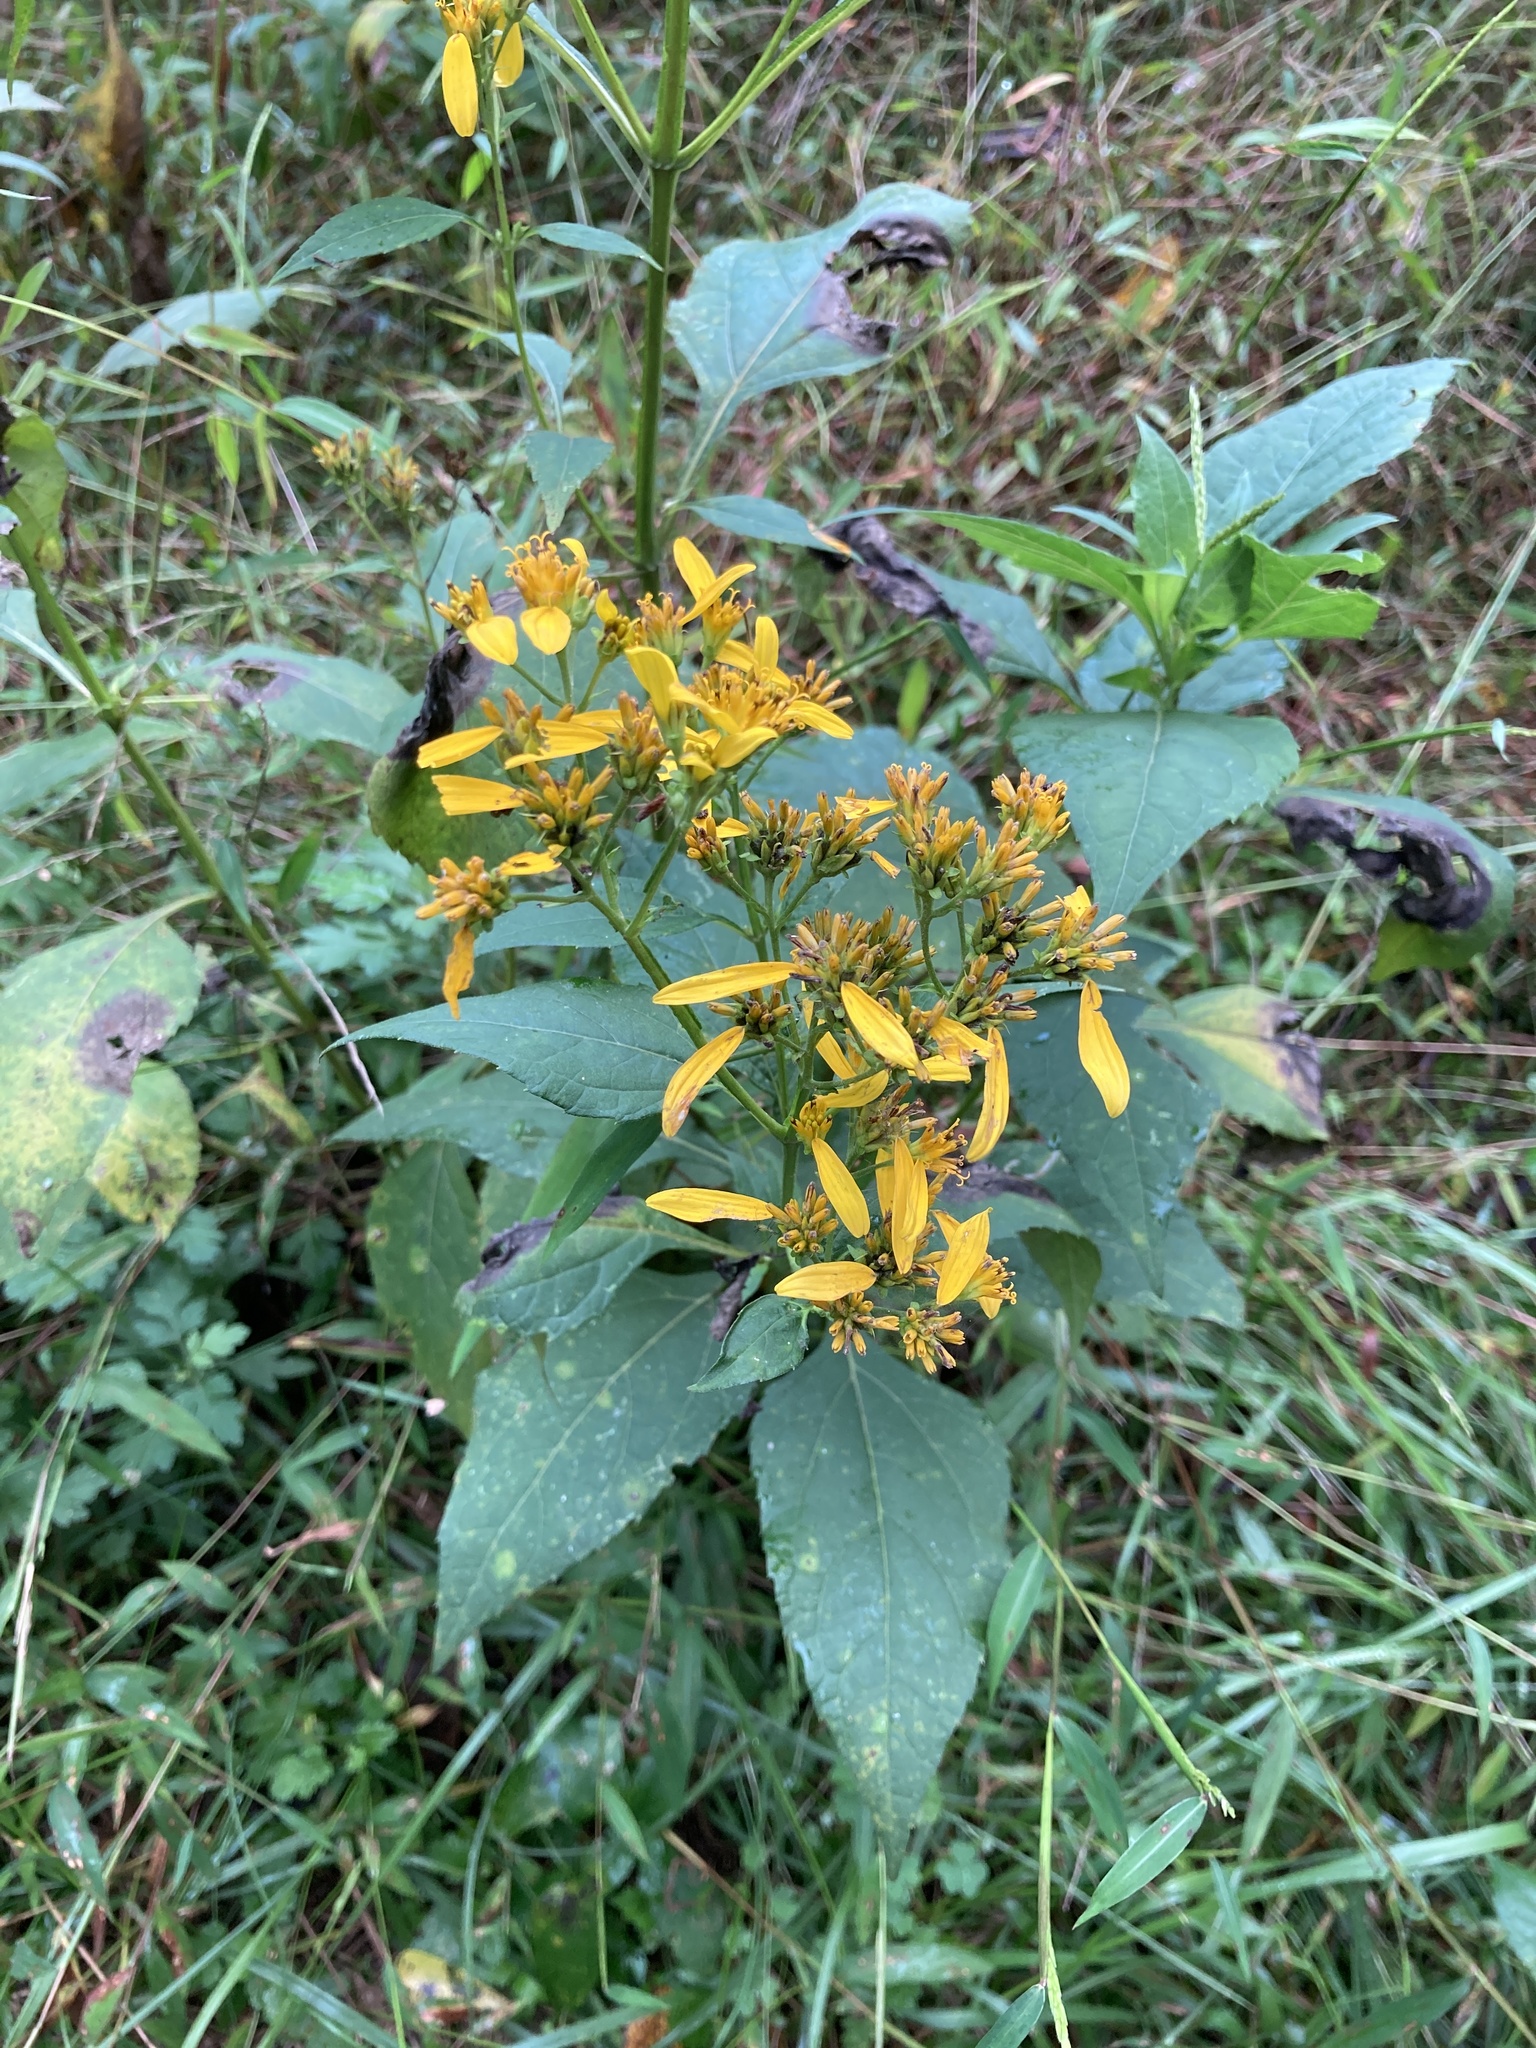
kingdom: Plantae
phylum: Tracheophyta
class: Magnoliopsida
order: Asterales
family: Asteraceae
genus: Verbesina
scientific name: Verbesina occidentalis
